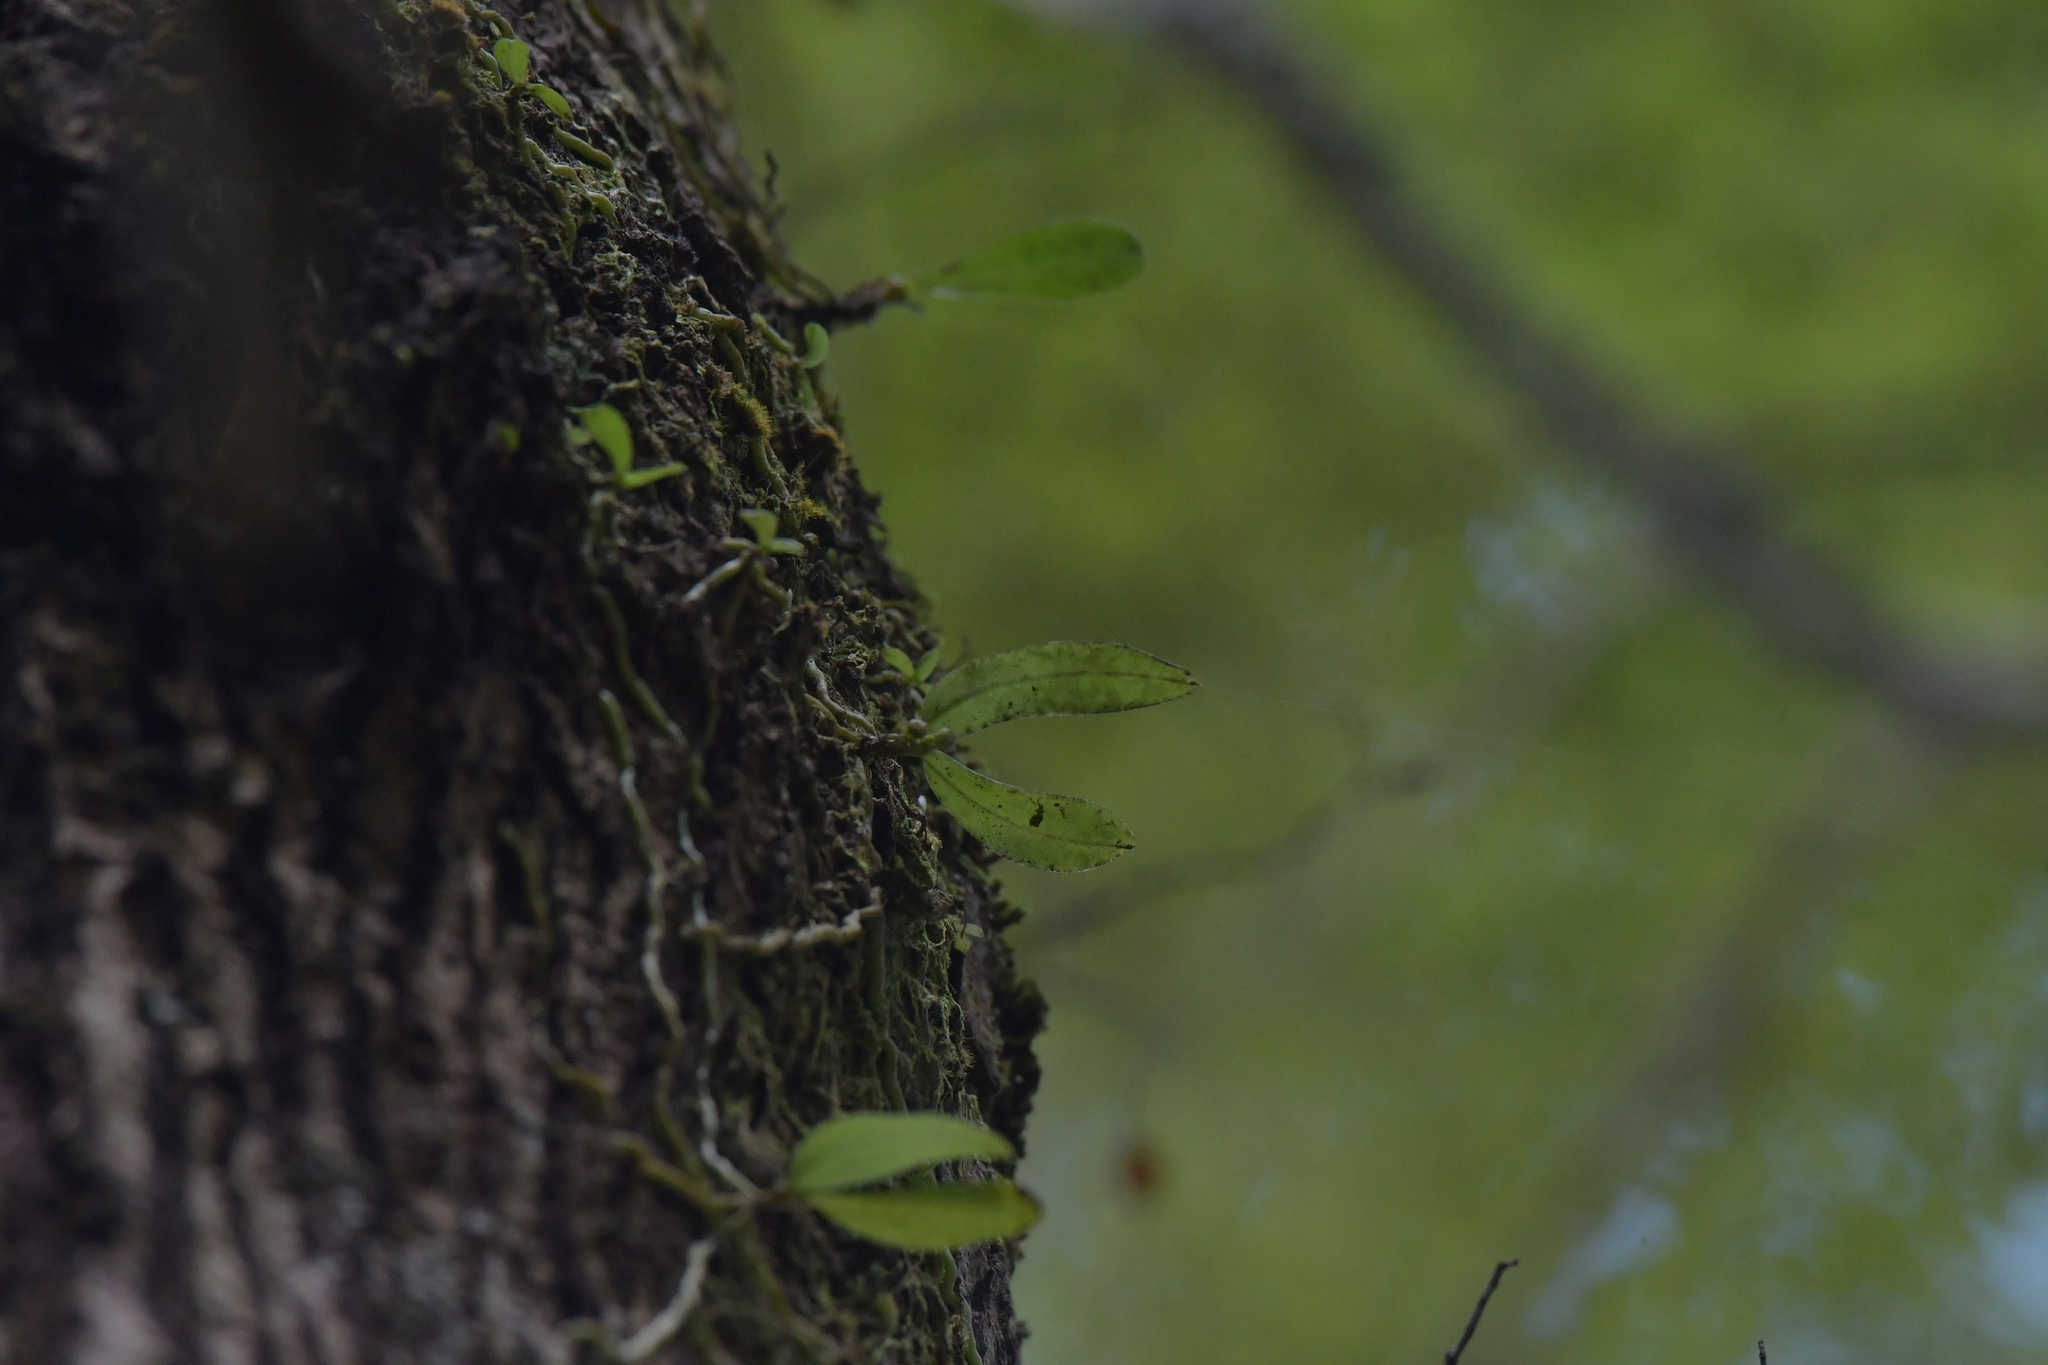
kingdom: Plantae
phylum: Tracheophyta
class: Liliopsida
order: Asparagales
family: Orchidaceae
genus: Drymoanthus
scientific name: Drymoanthus adversus
